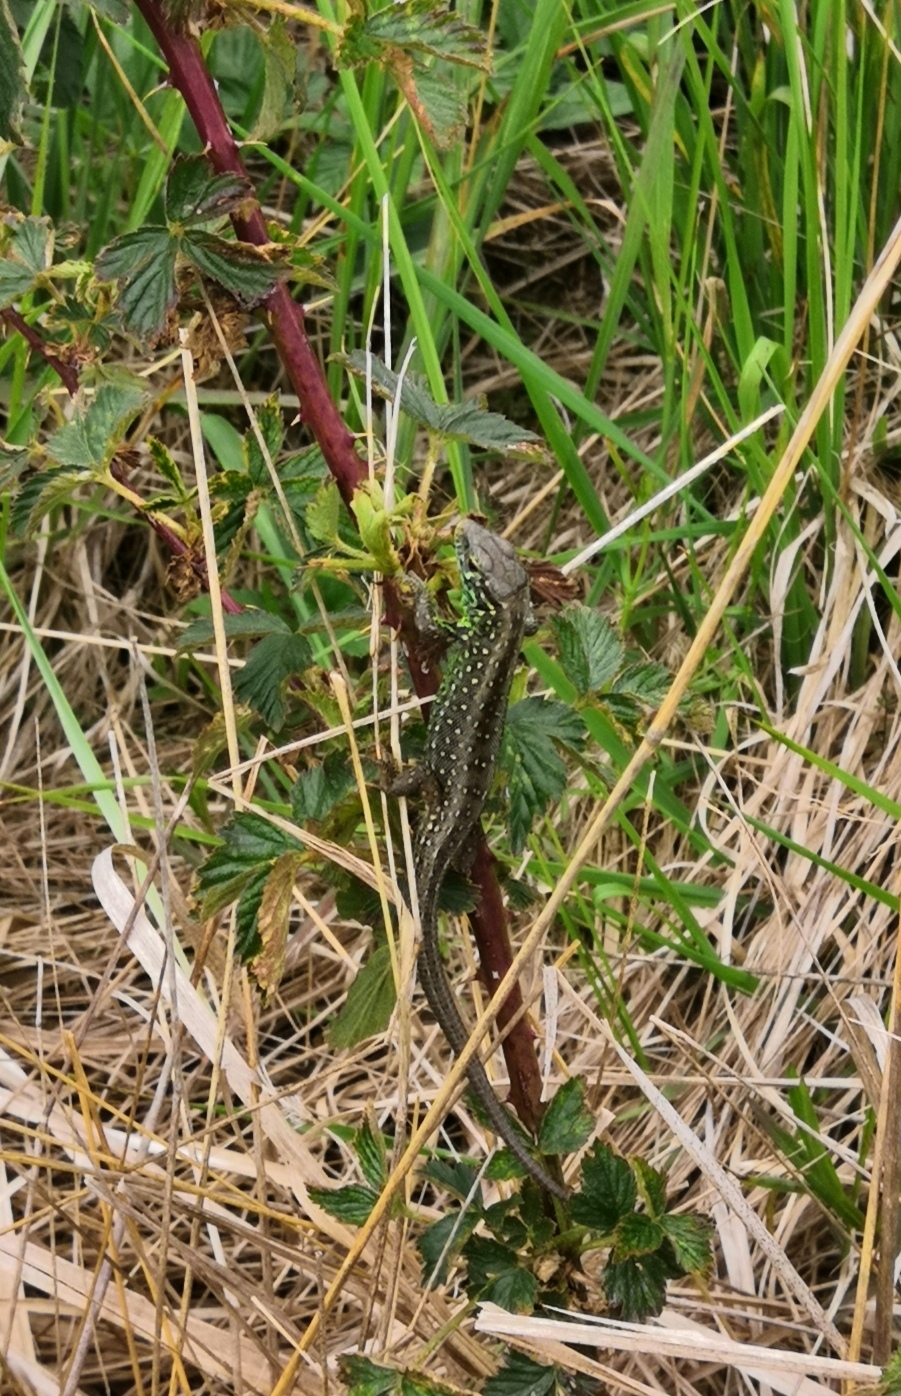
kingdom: Animalia
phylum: Chordata
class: Squamata
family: Lacertidae
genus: Lacerta
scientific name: Lacerta agilis
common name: Sand lizard
